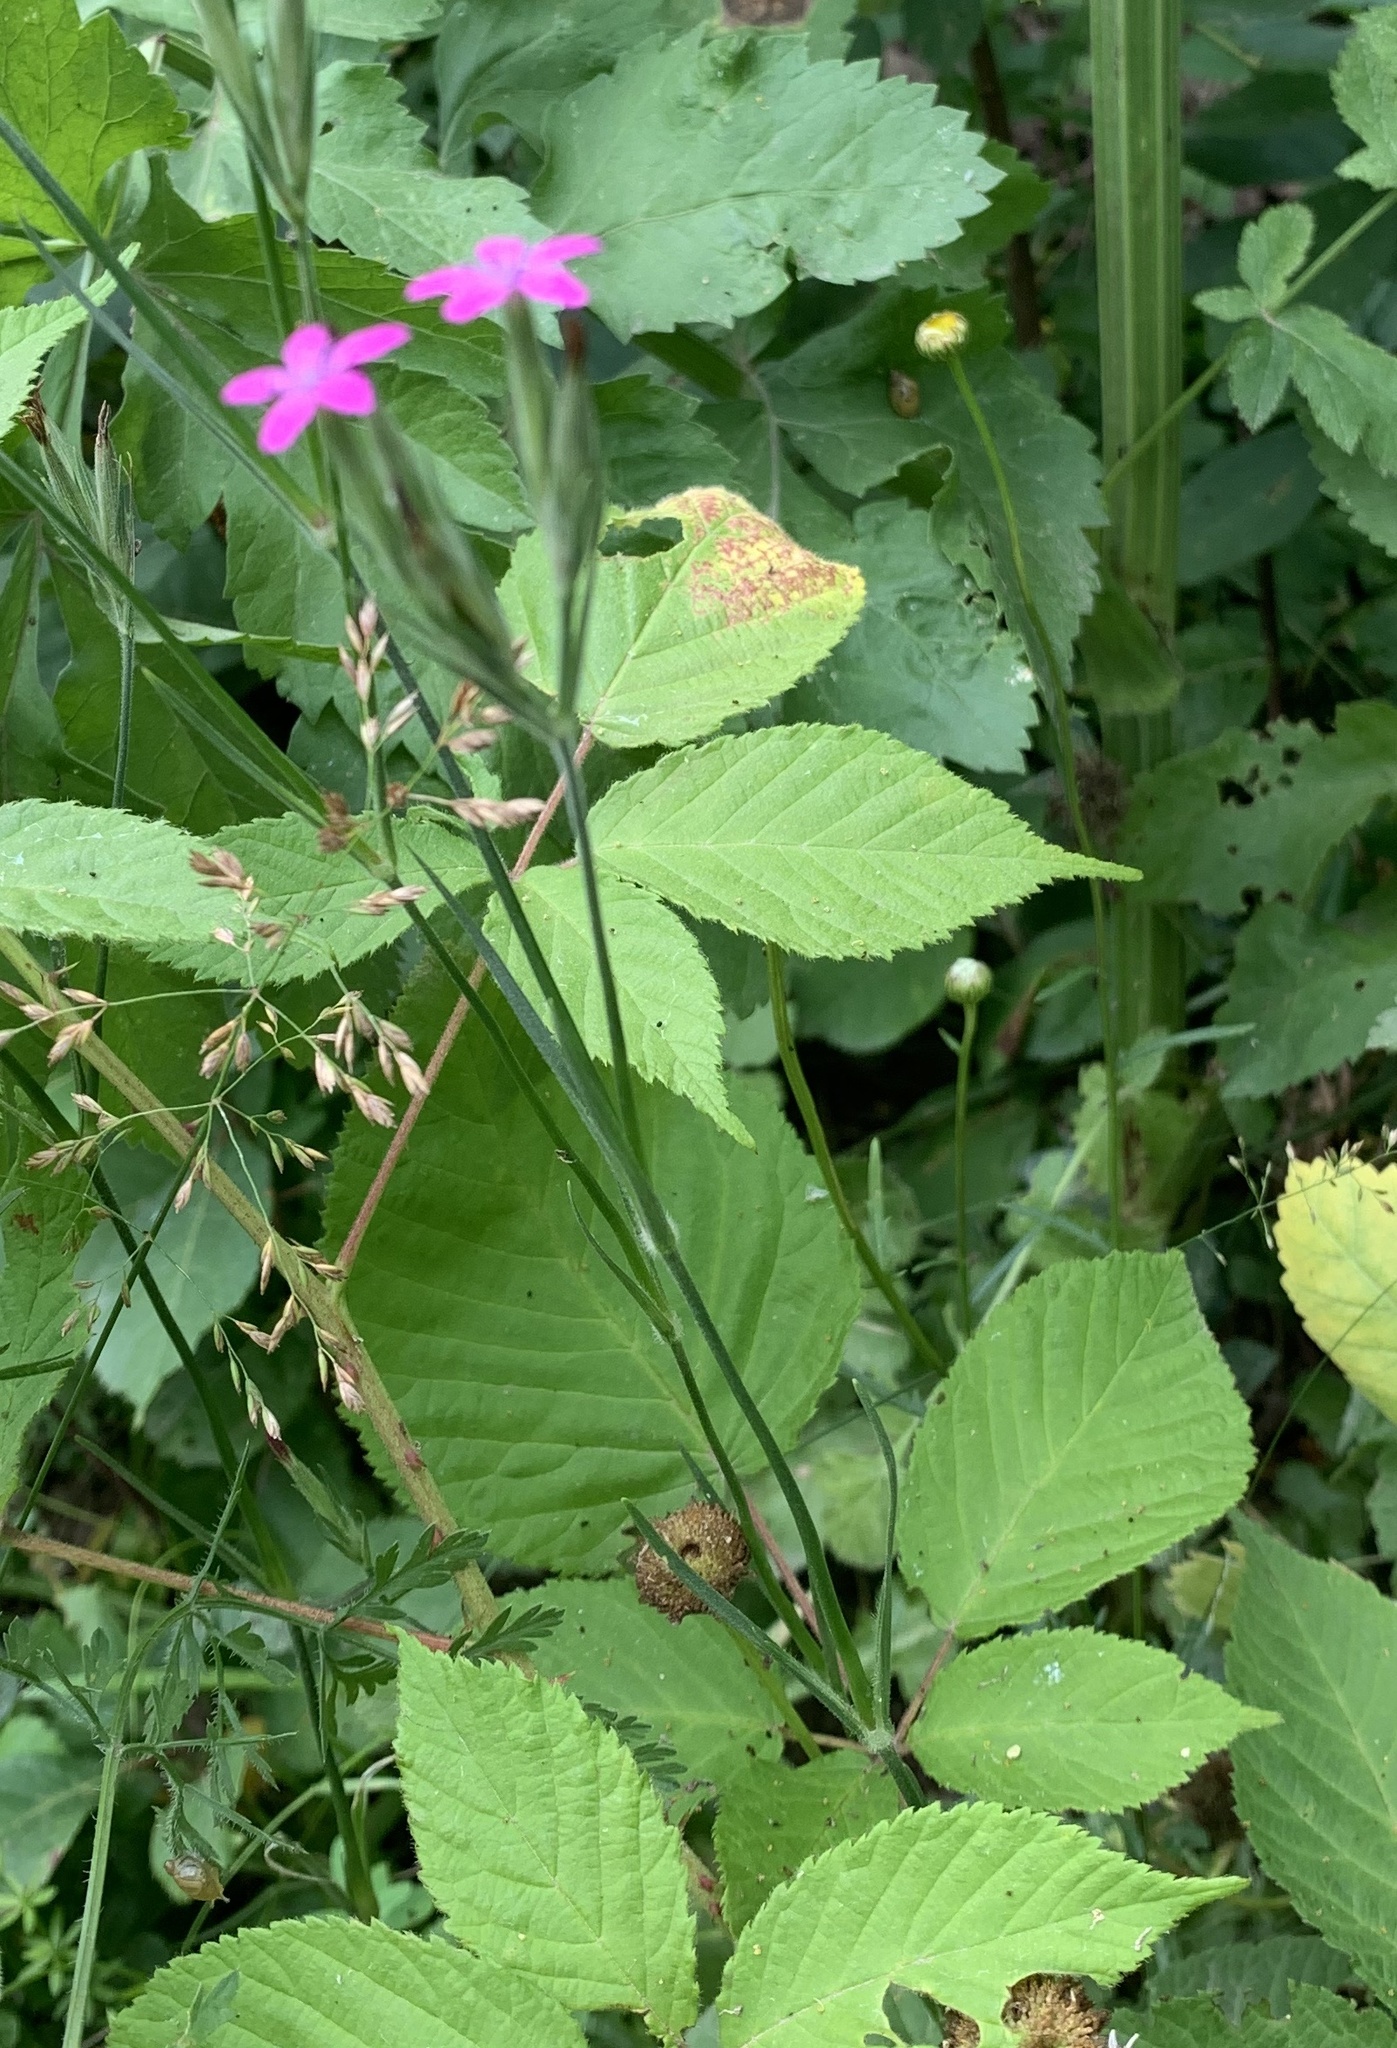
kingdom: Plantae
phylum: Tracheophyta
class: Magnoliopsida
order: Caryophyllales
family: Caryophyllaceae
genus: Dianthus
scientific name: Dianthus armeria
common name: Deptford pink
